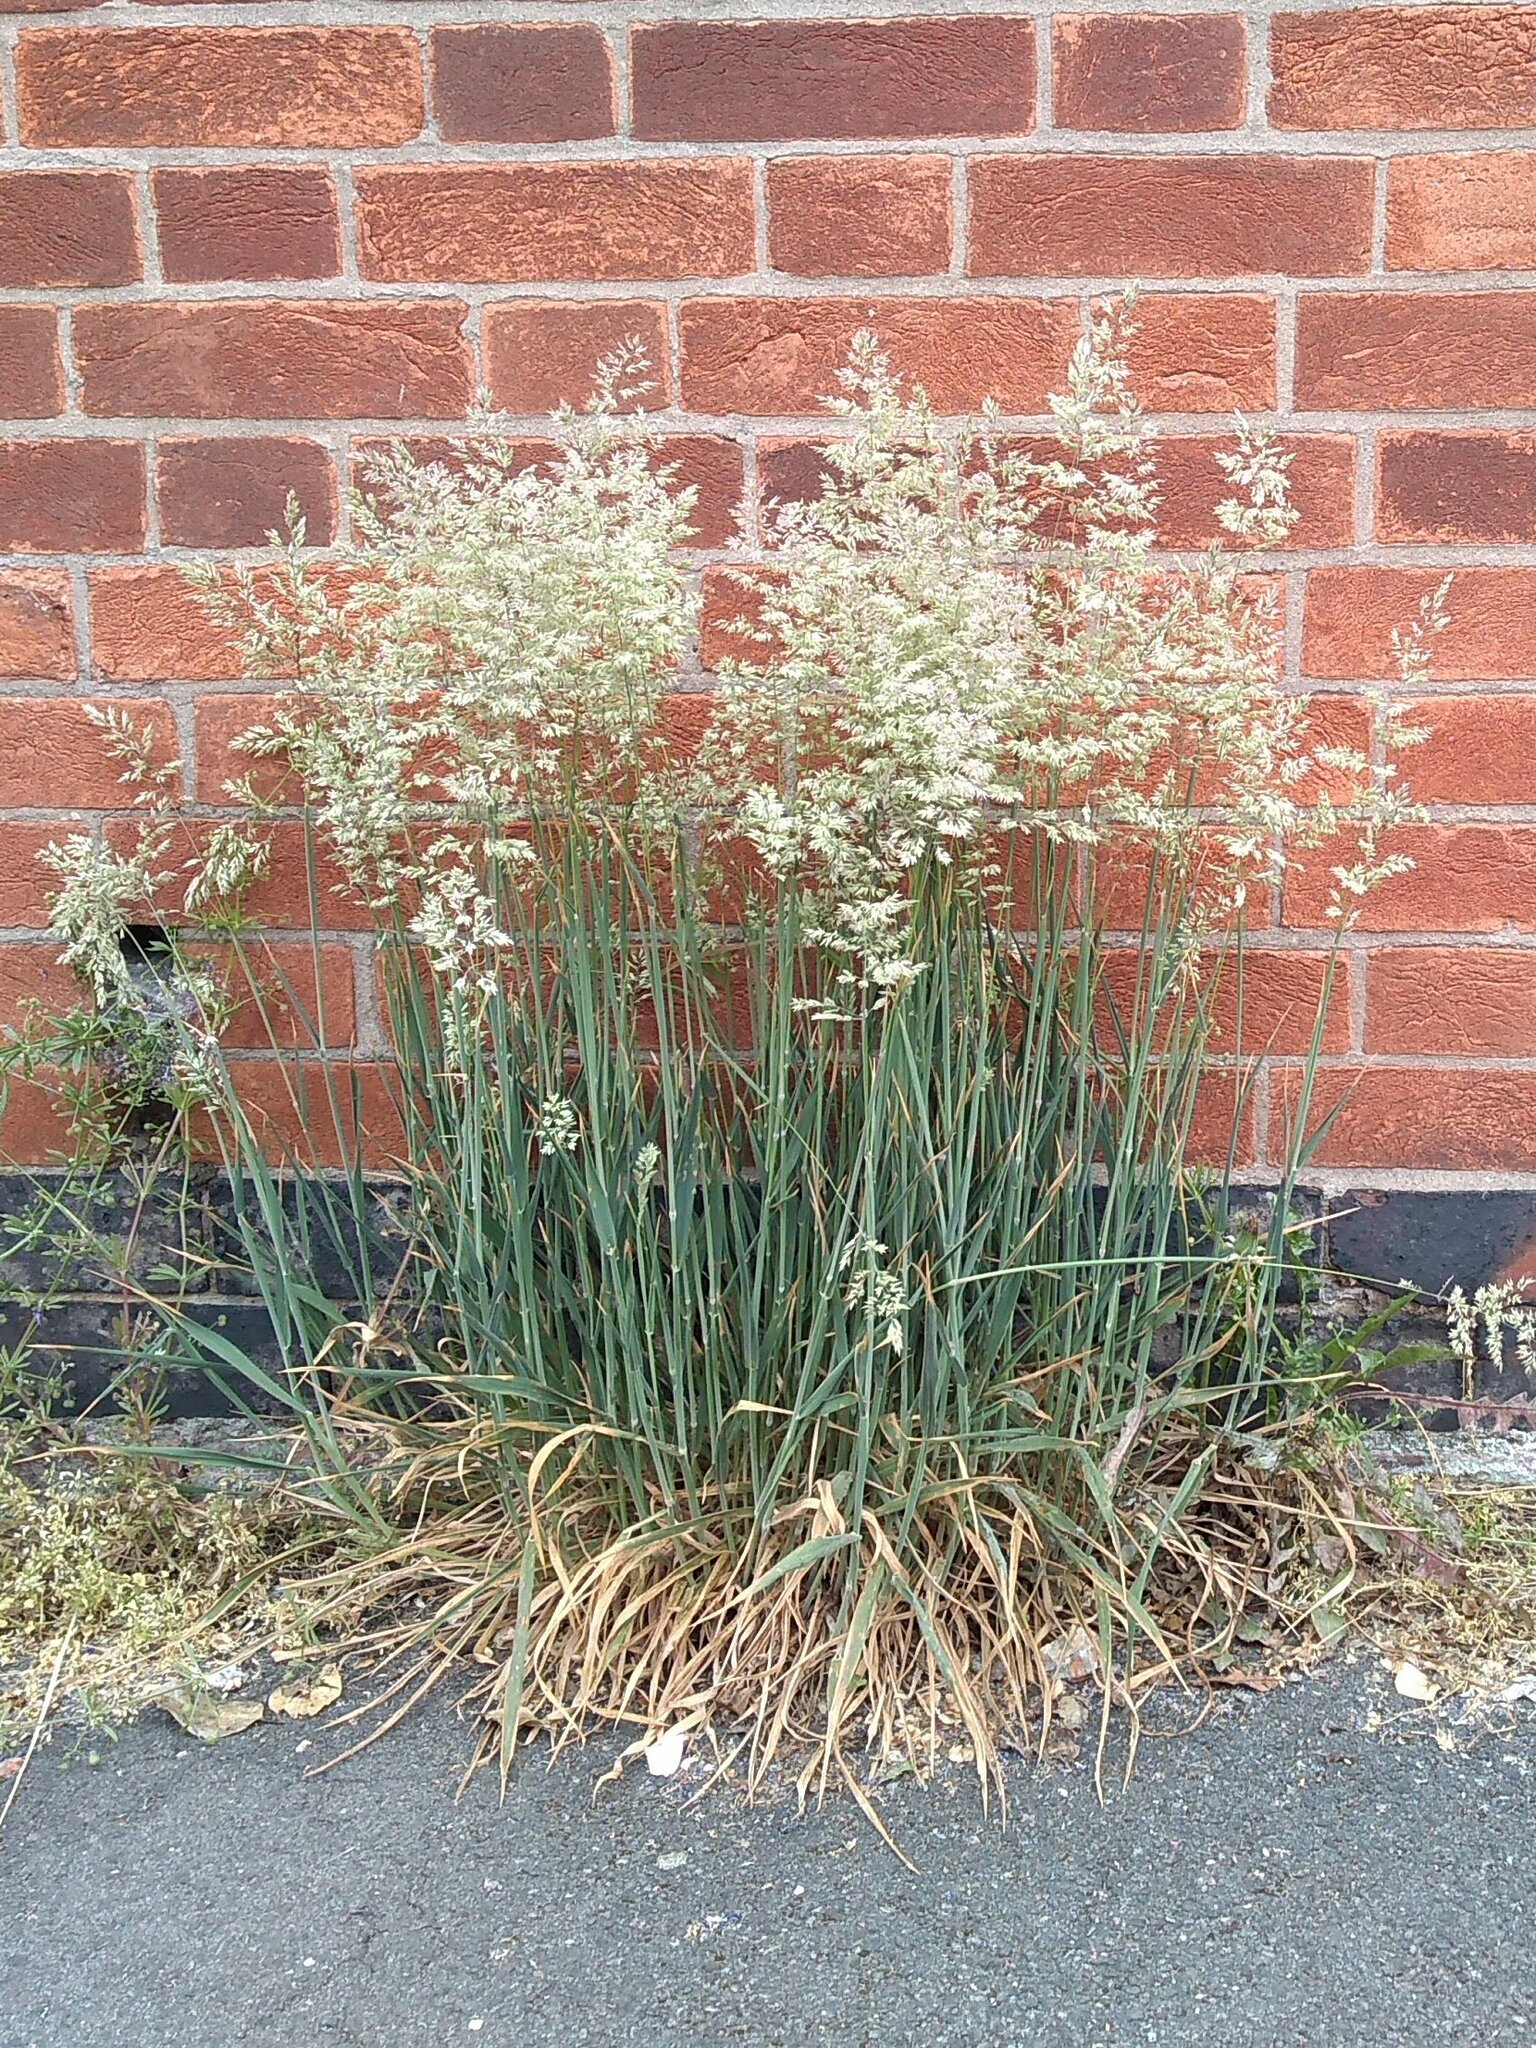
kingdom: Plantae
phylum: Tracheophyta
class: Liliopsida
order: Poales
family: Poaceae
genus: Holcus
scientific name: Holcus lanatus
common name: Yorkshire-fog
